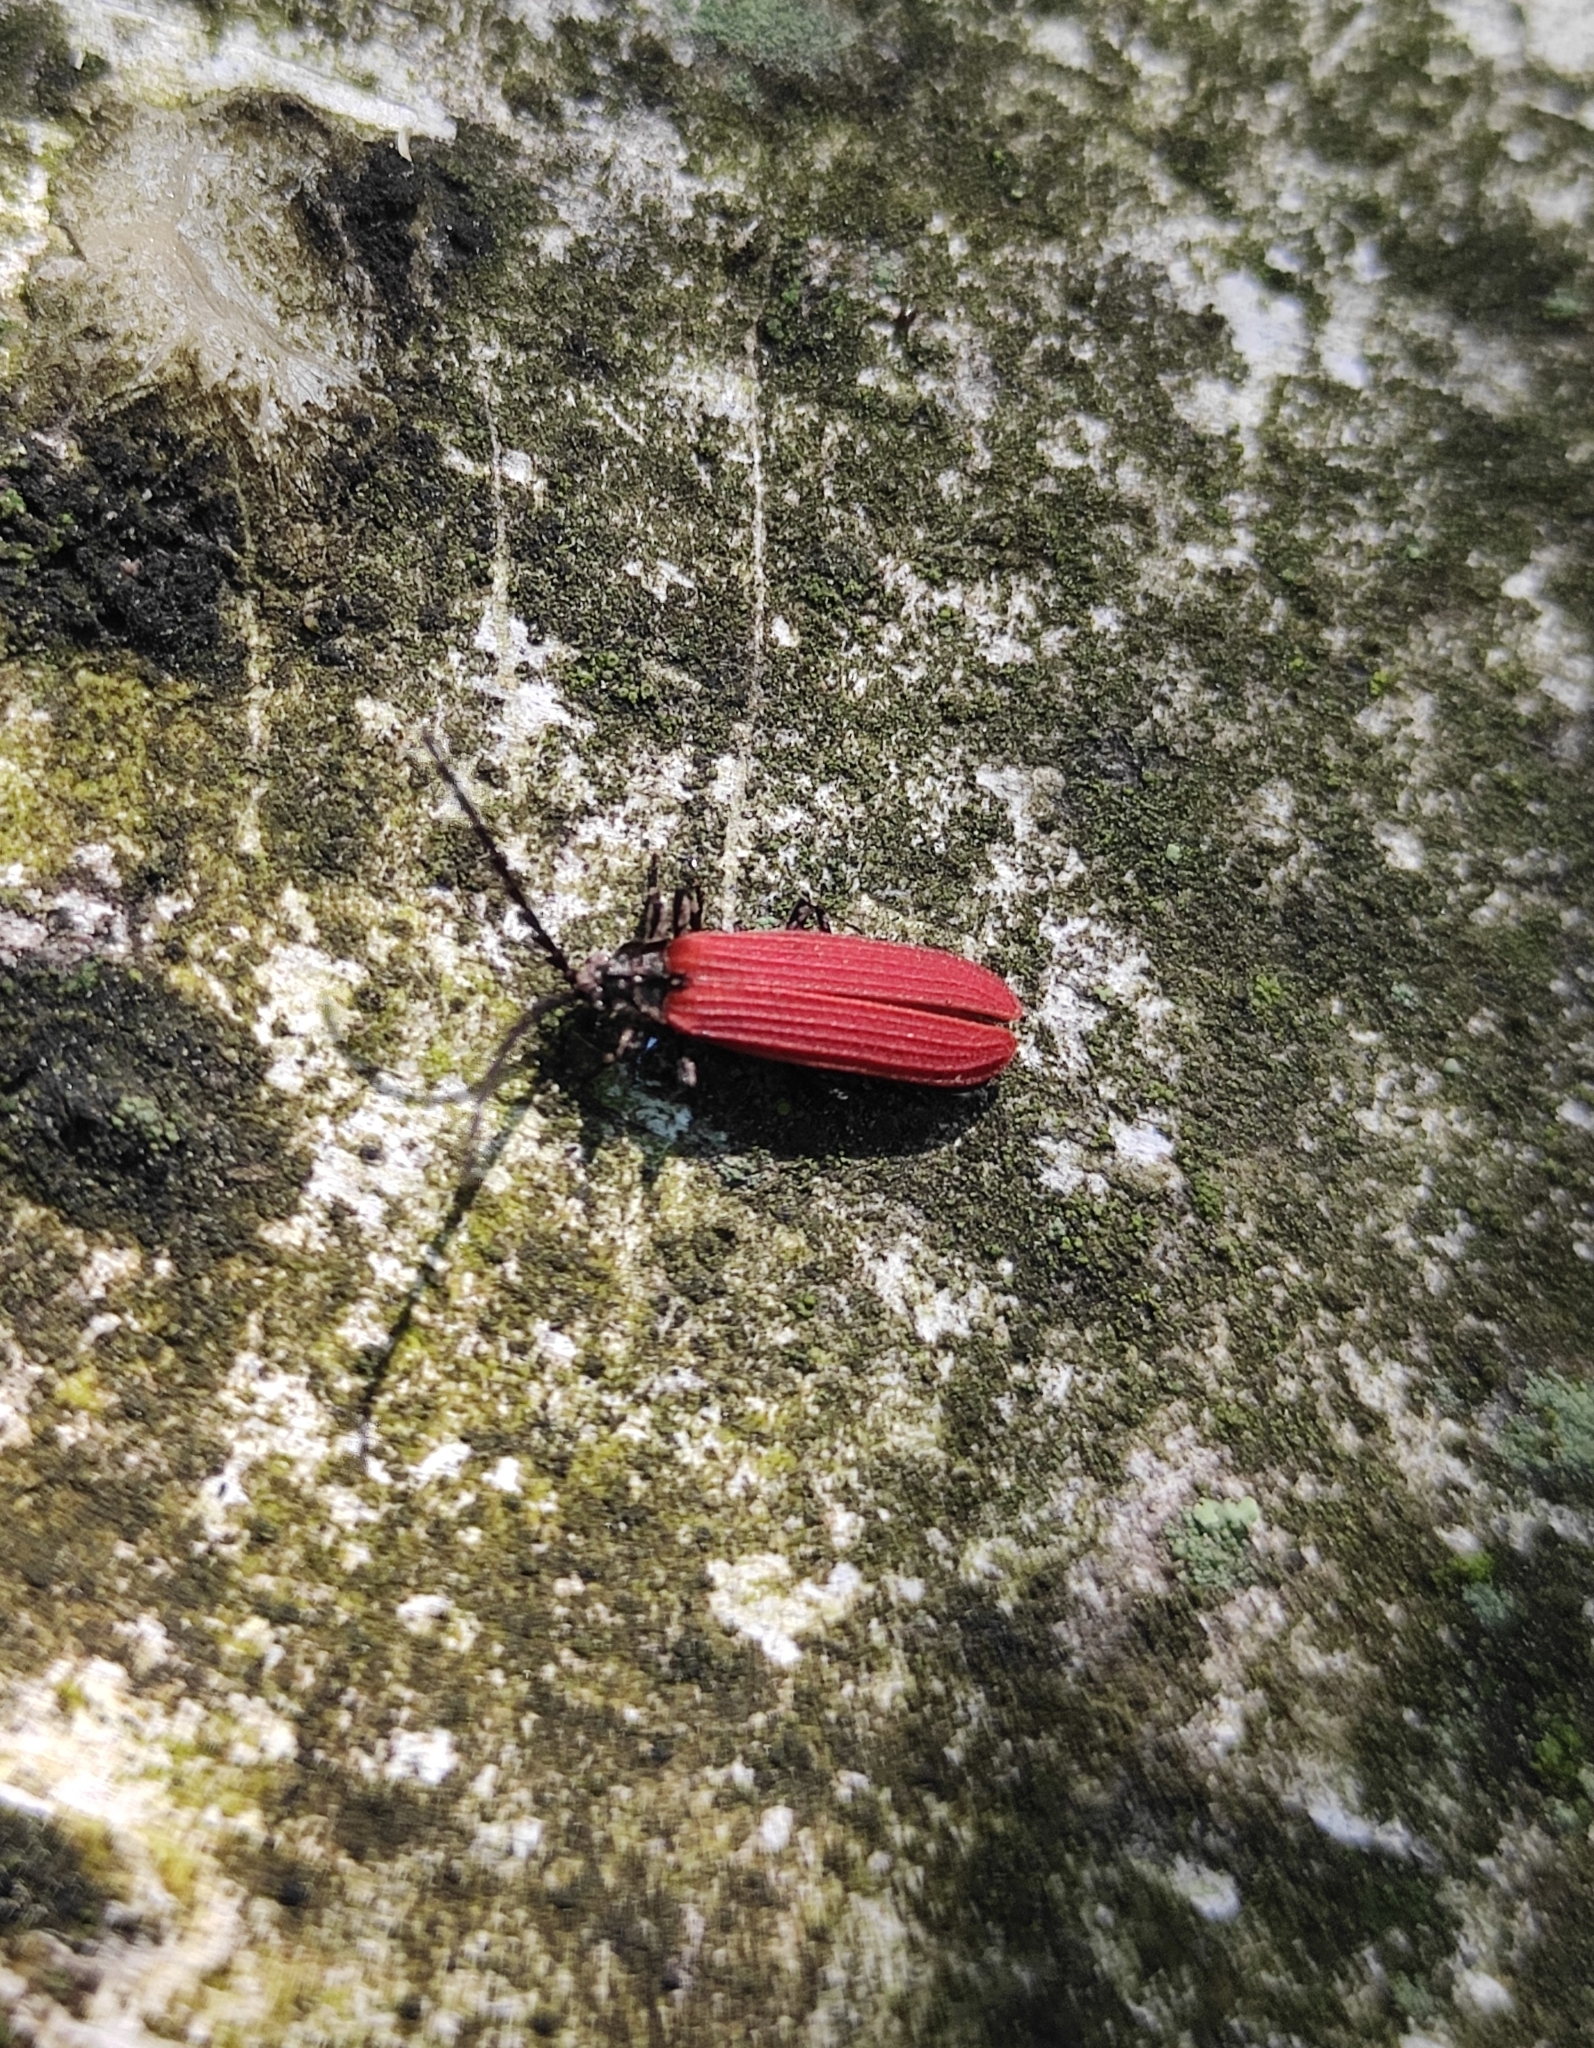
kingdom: Animalia
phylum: Arthropoda
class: Insecta
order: Coleoptera
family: Lycidae
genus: Xylobanellus
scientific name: Xylobanellus erythropterus
